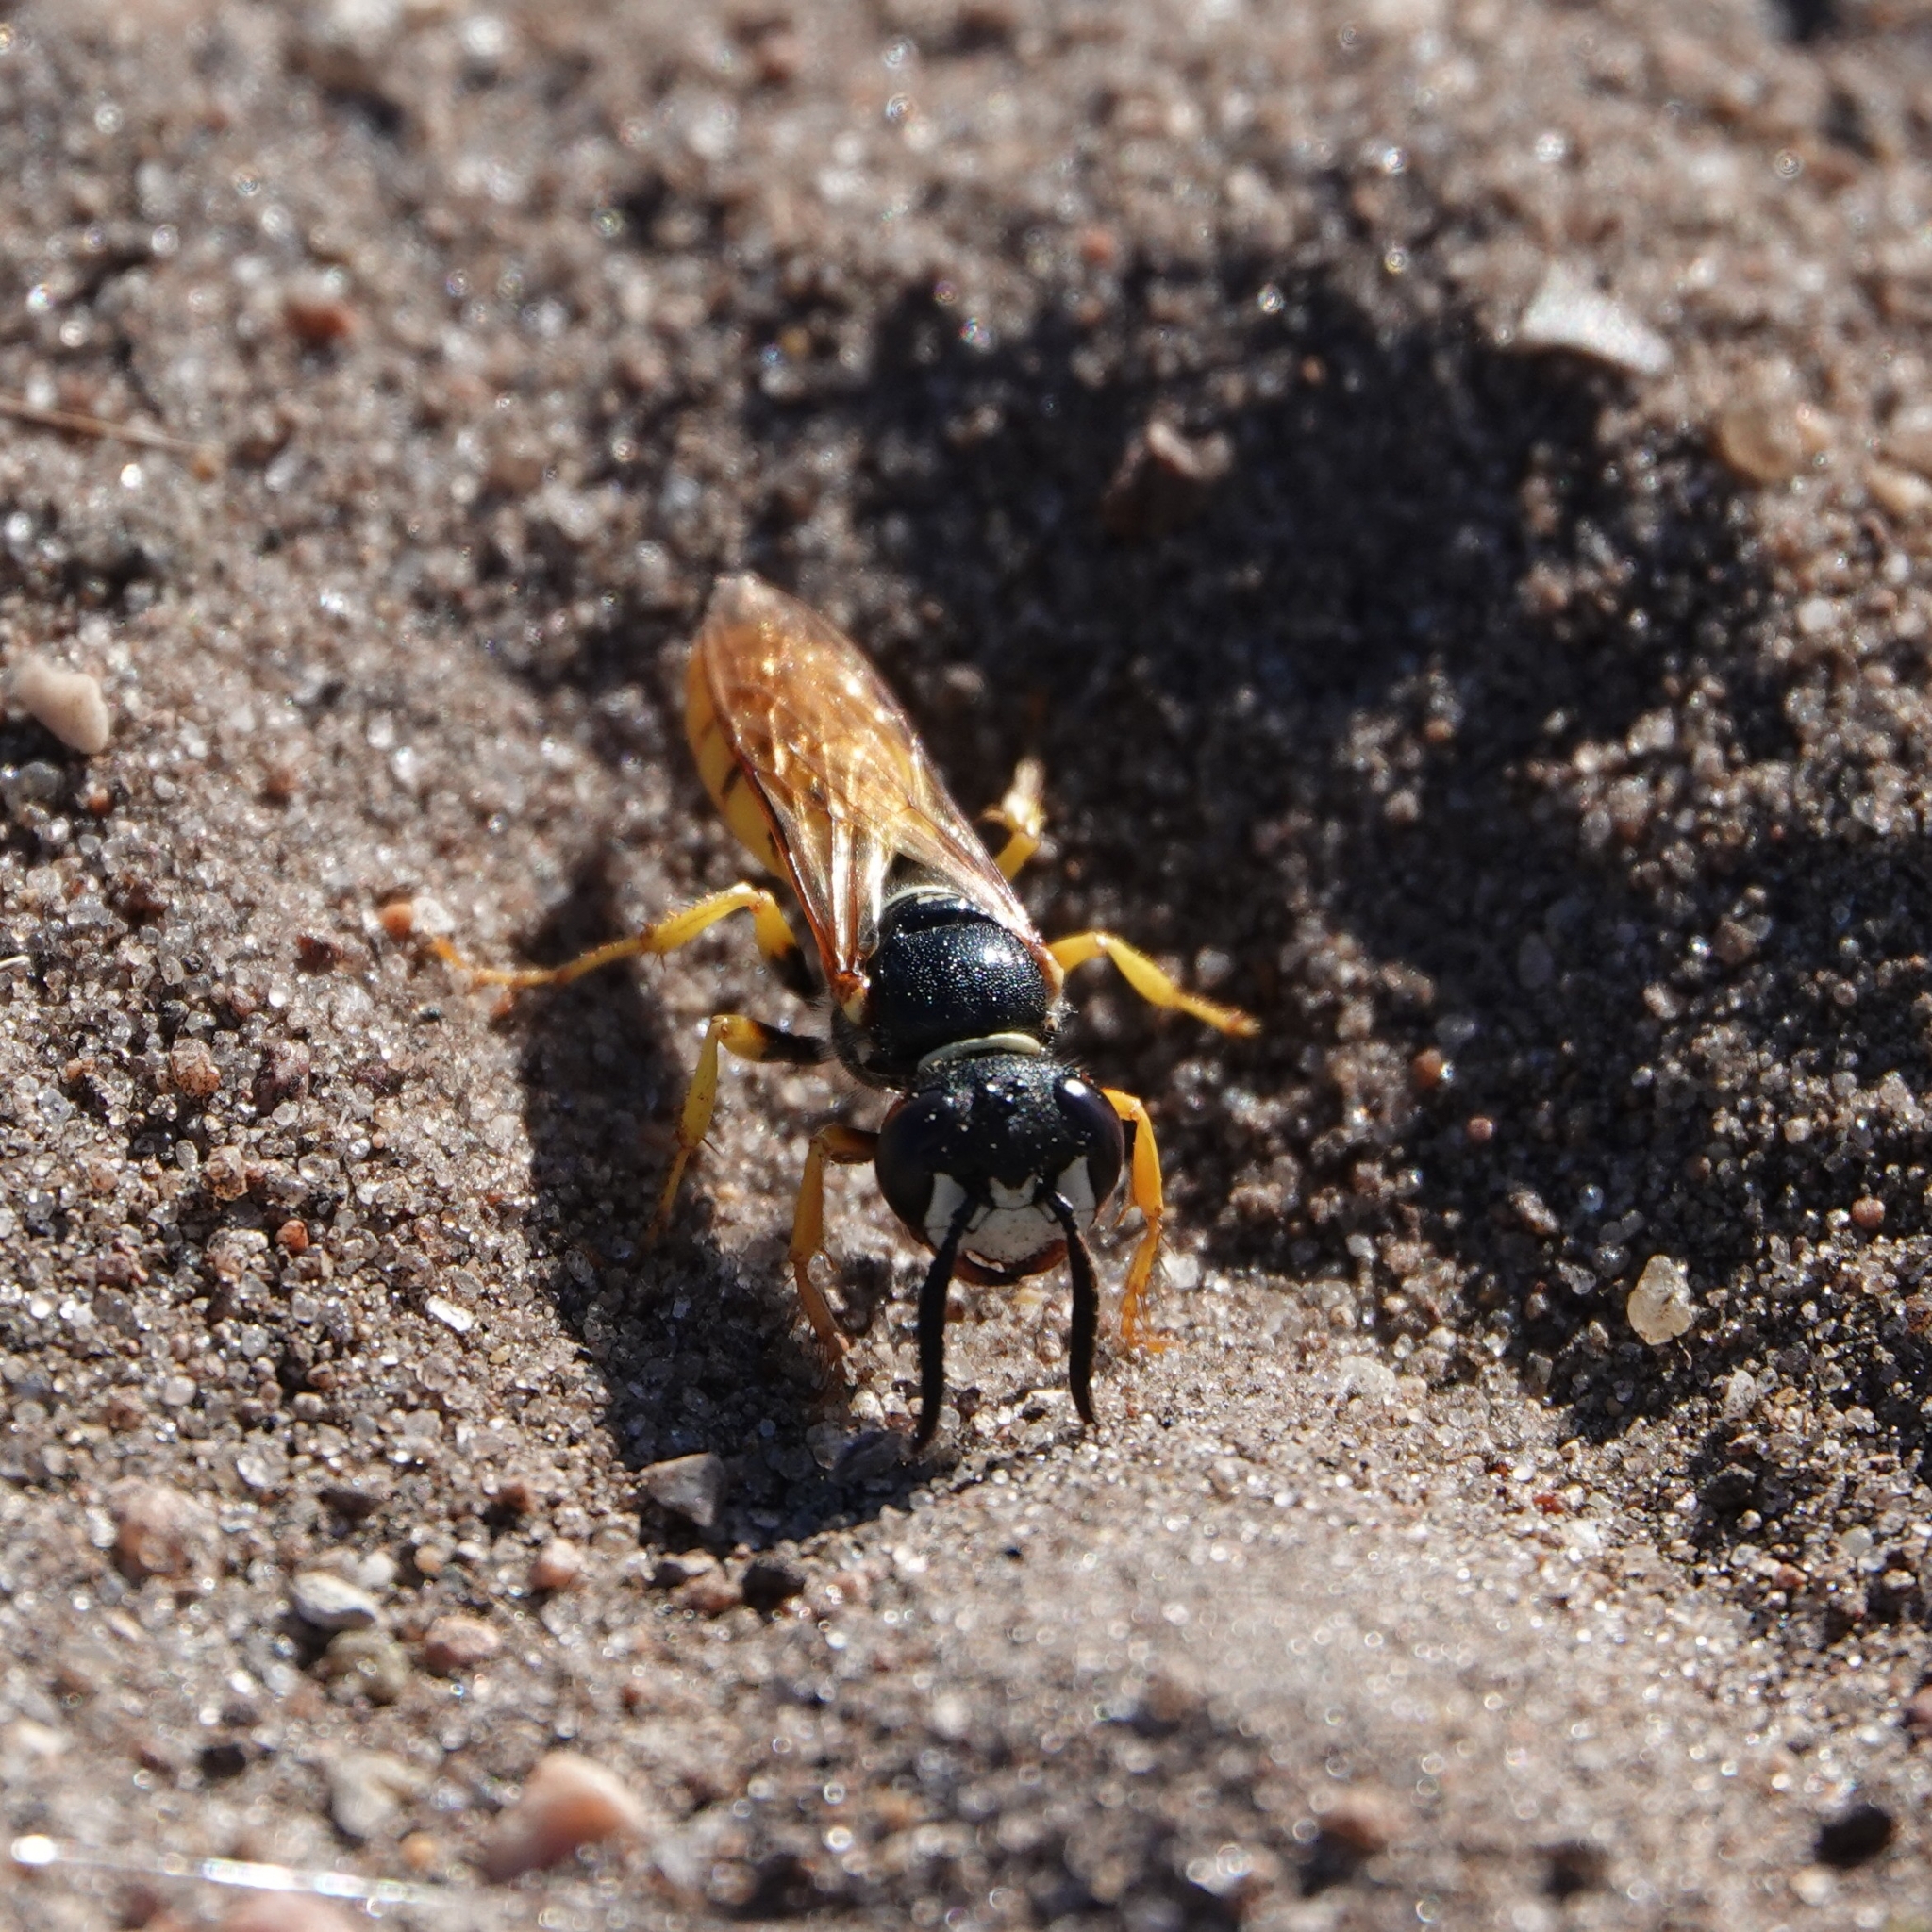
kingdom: Animalia
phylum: Arthropoda
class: Insecta
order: Hymenoptera
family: Crabronidae
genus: Philanthus
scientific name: Philanthus triangulum
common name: Bee wolf
